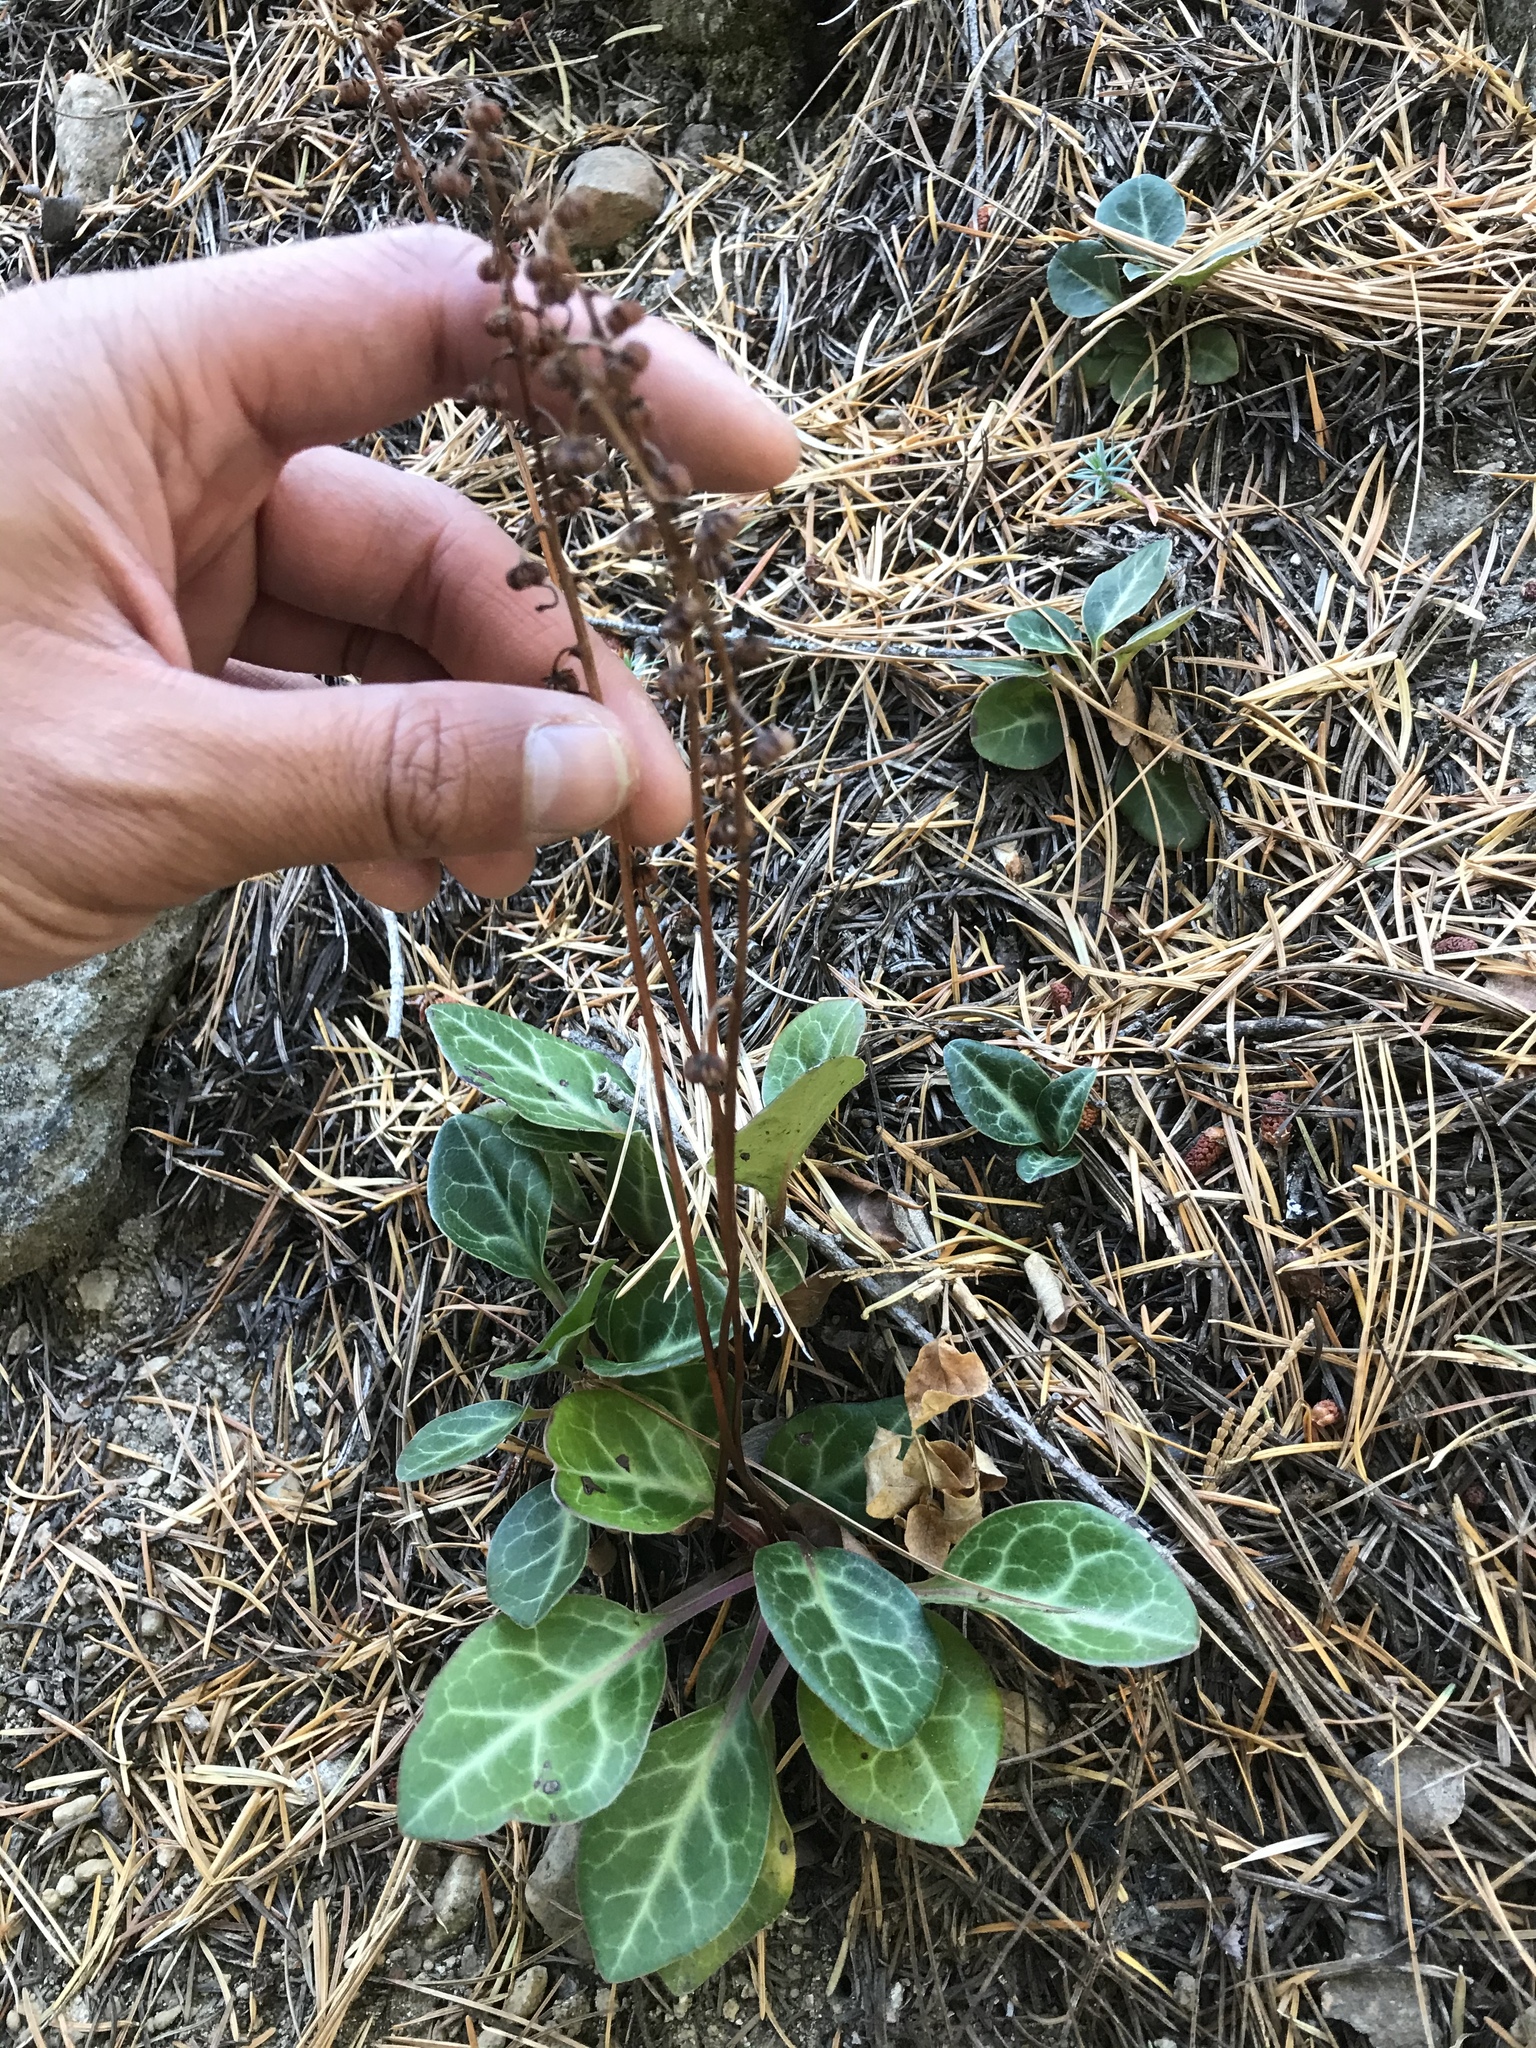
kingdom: Plantae
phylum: Tracheophyta
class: Magnoliopsida
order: Ericales
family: Ericaceae
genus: Pyrola
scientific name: Pyrola picta
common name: White-vein wintergreen
